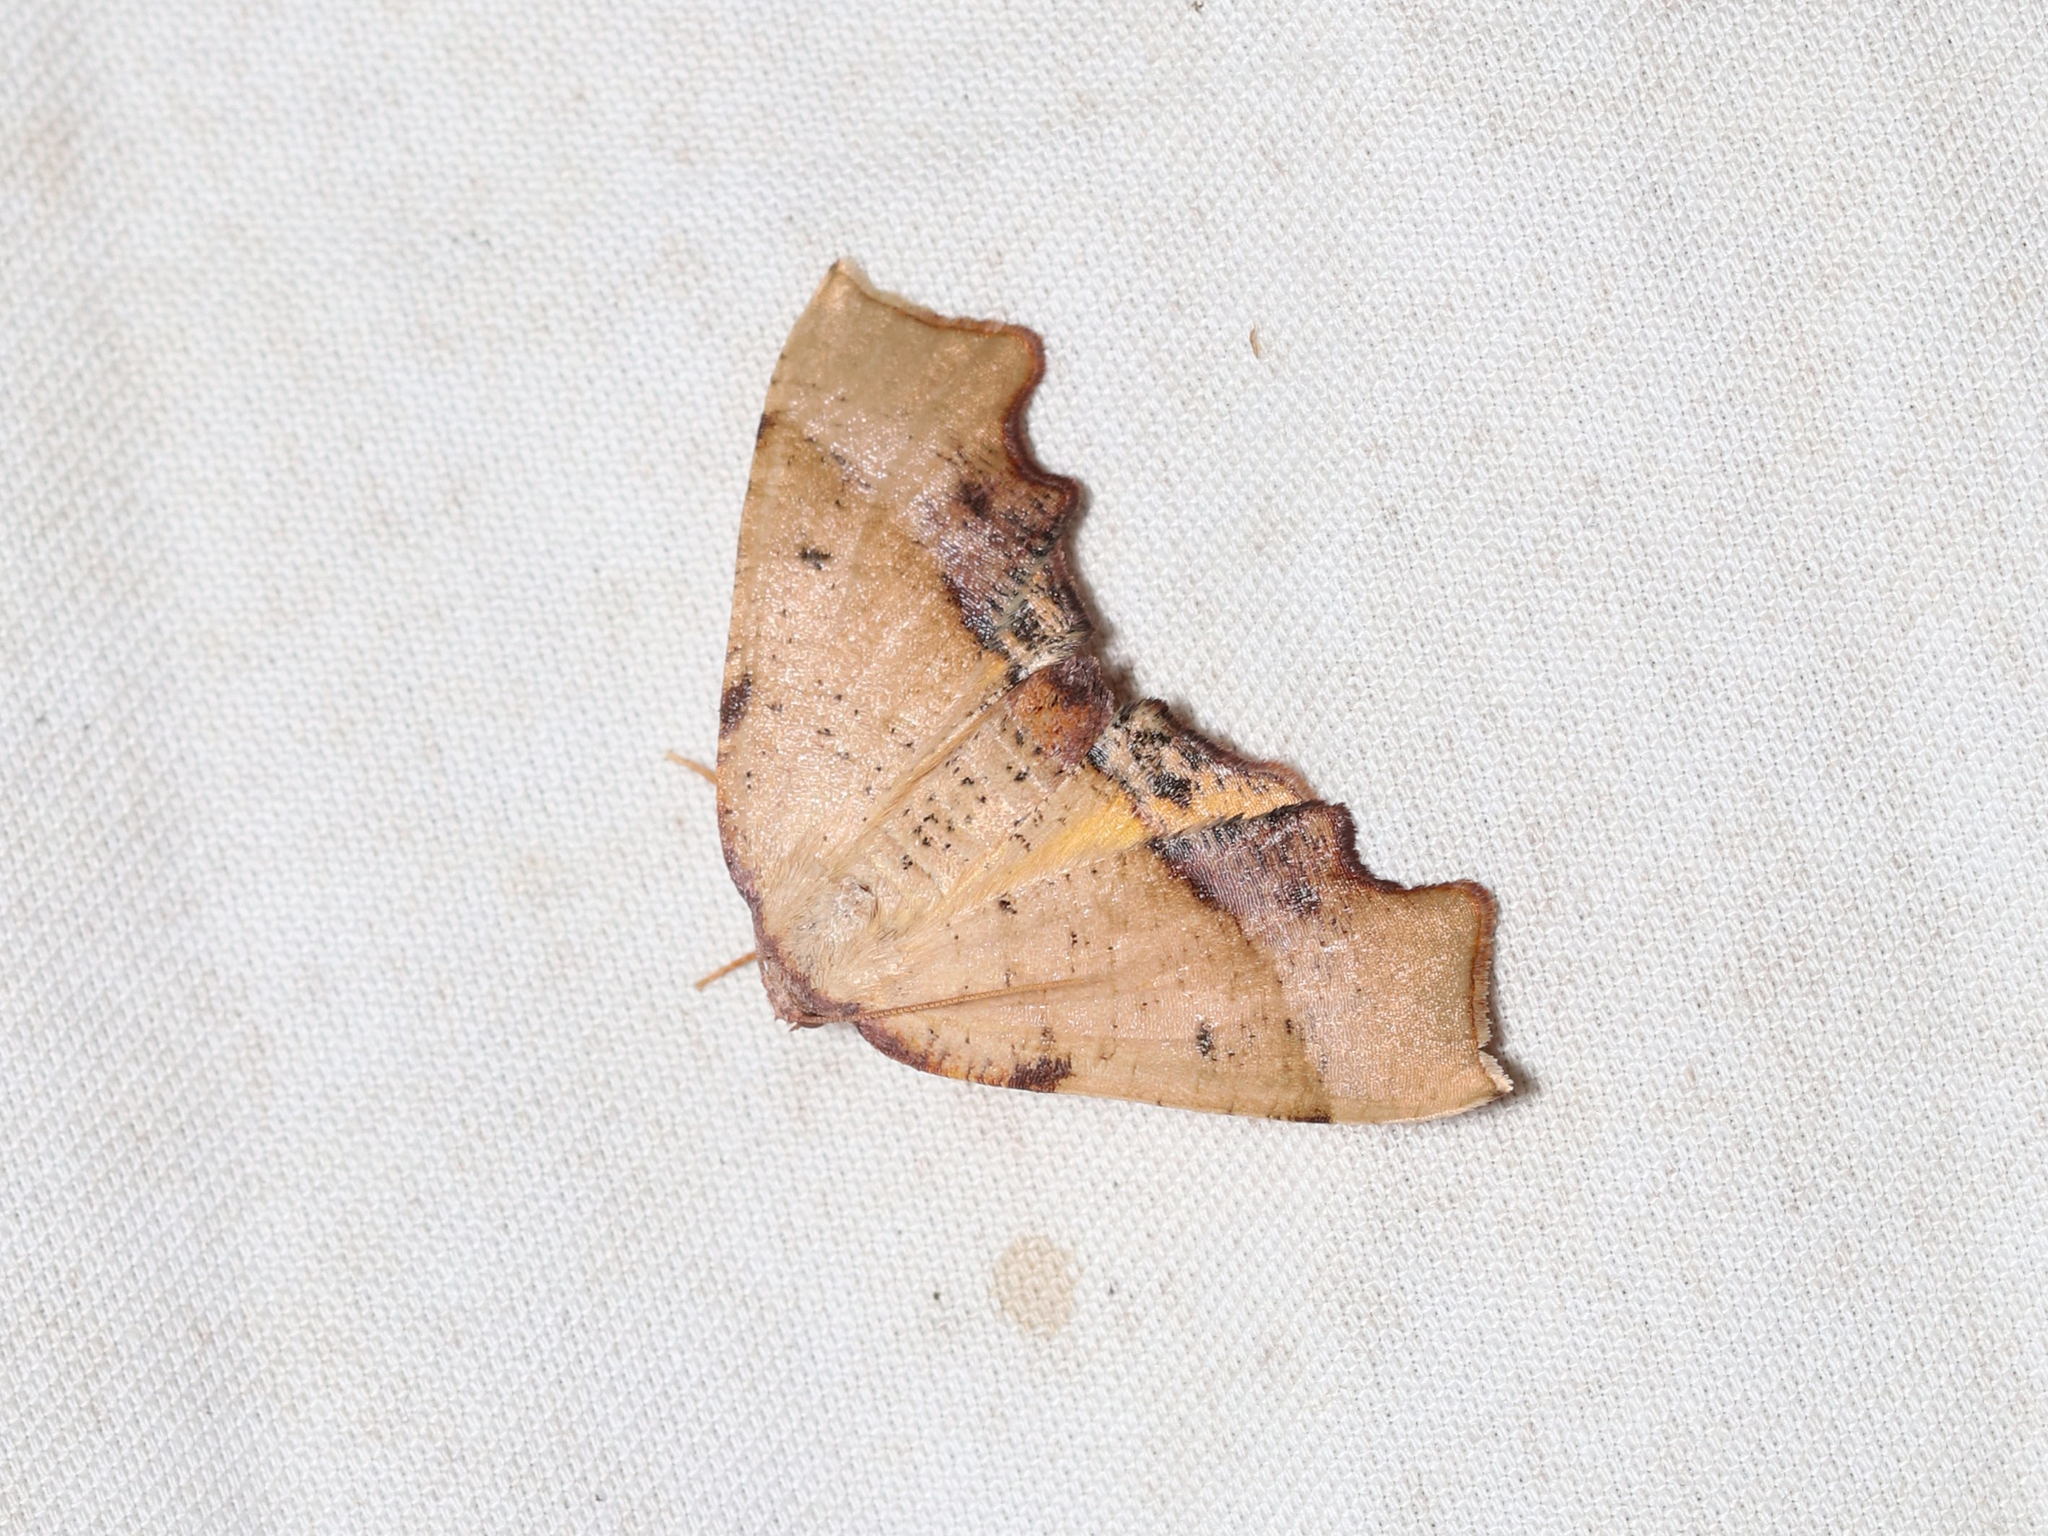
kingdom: Animalia
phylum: Arthropoda
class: Insecta
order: Lepidoptera
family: Geometridae
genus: Plagodis
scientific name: Plagodis fervidaria
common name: Fervid plagodis
